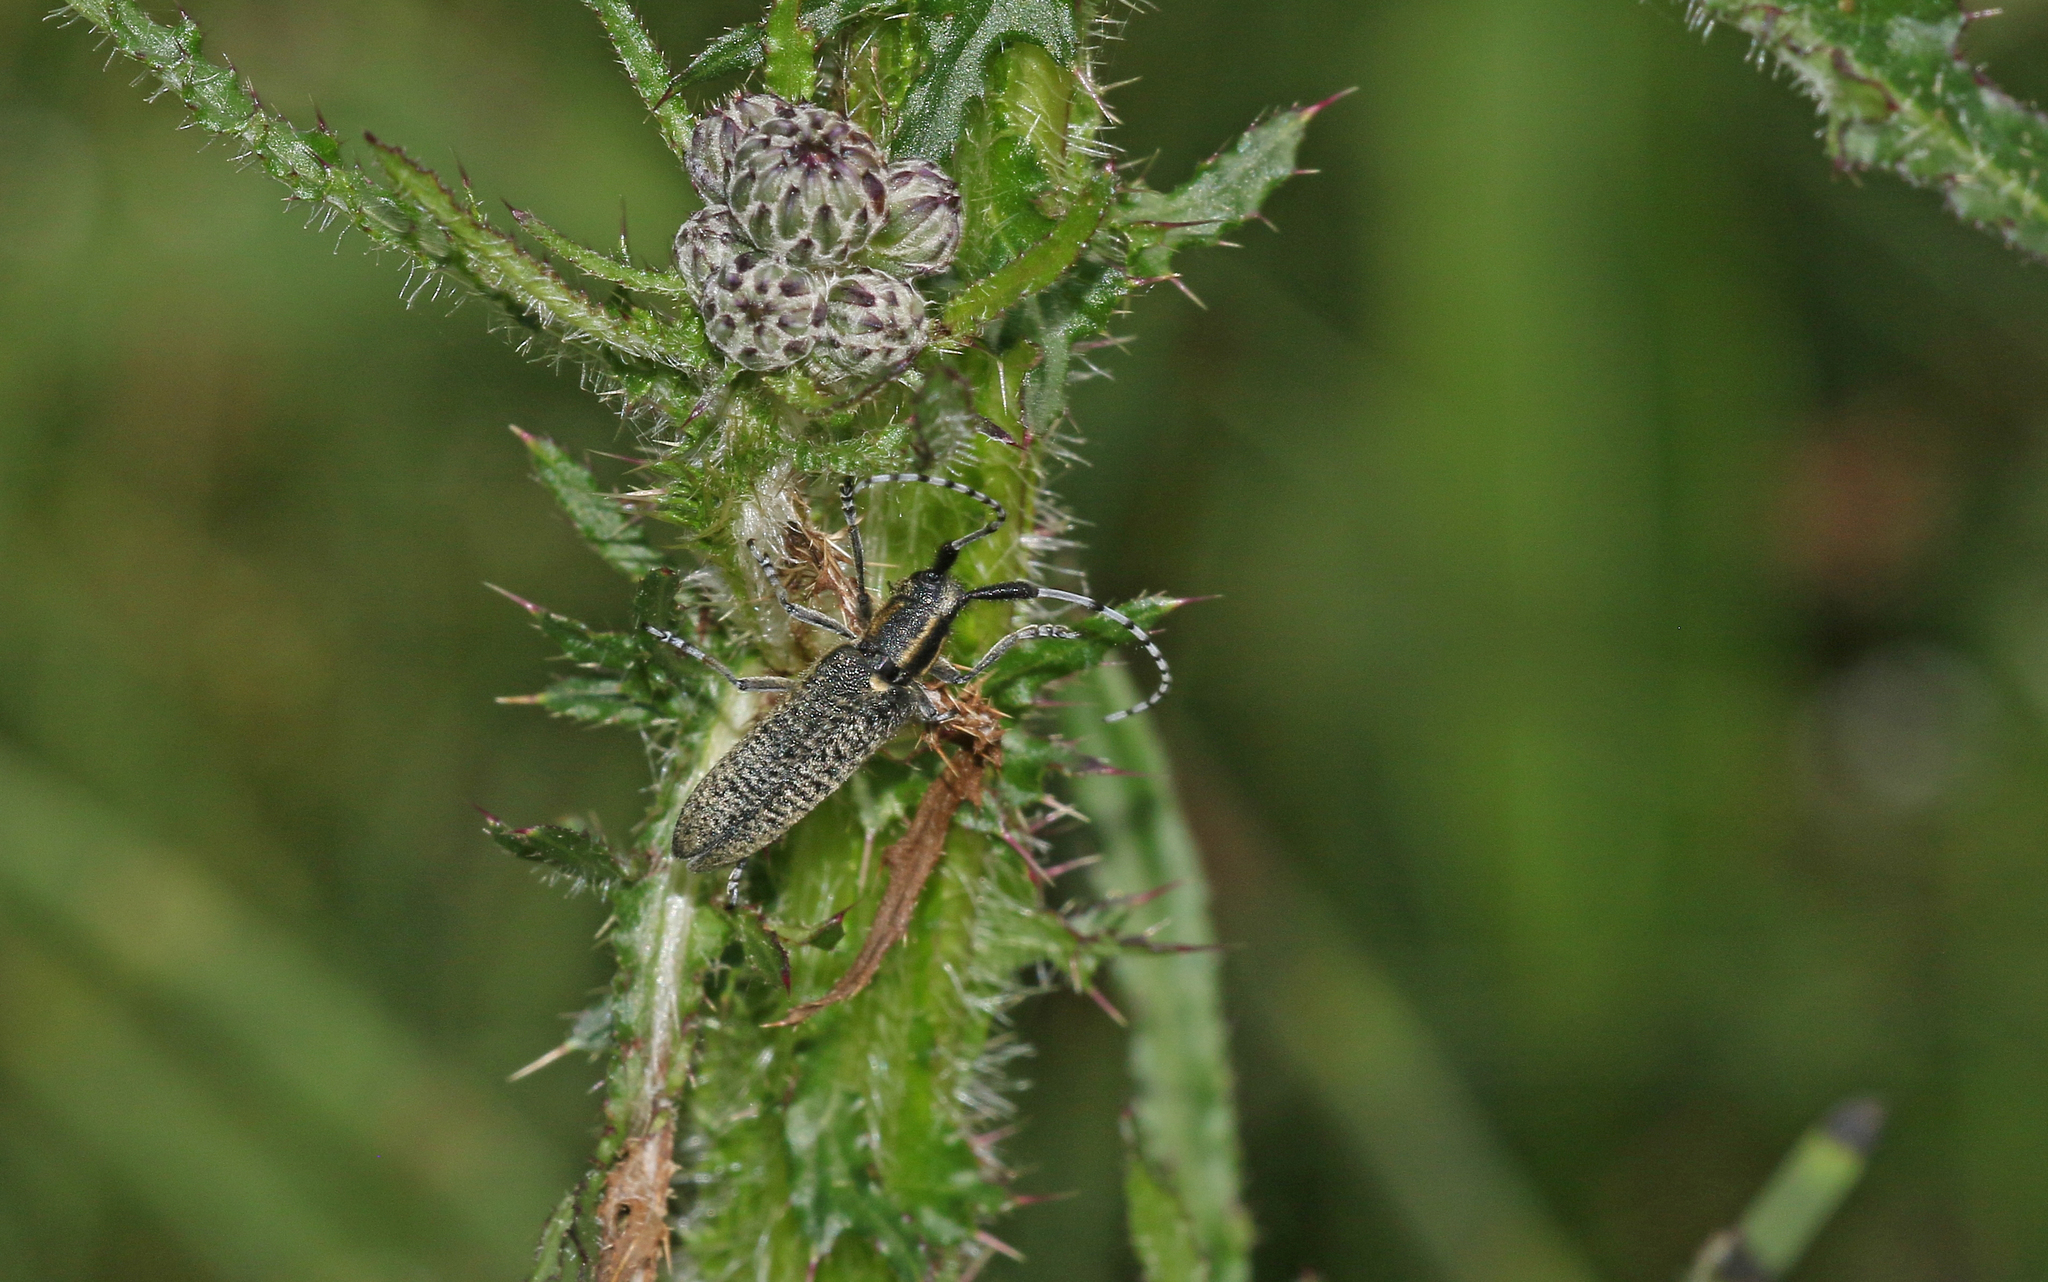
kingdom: Animalia
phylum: Arthropoda
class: Insecta
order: Coleoptera
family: Cerambycidae
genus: Agapanthia
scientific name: Agapanthia villosoviridescens
